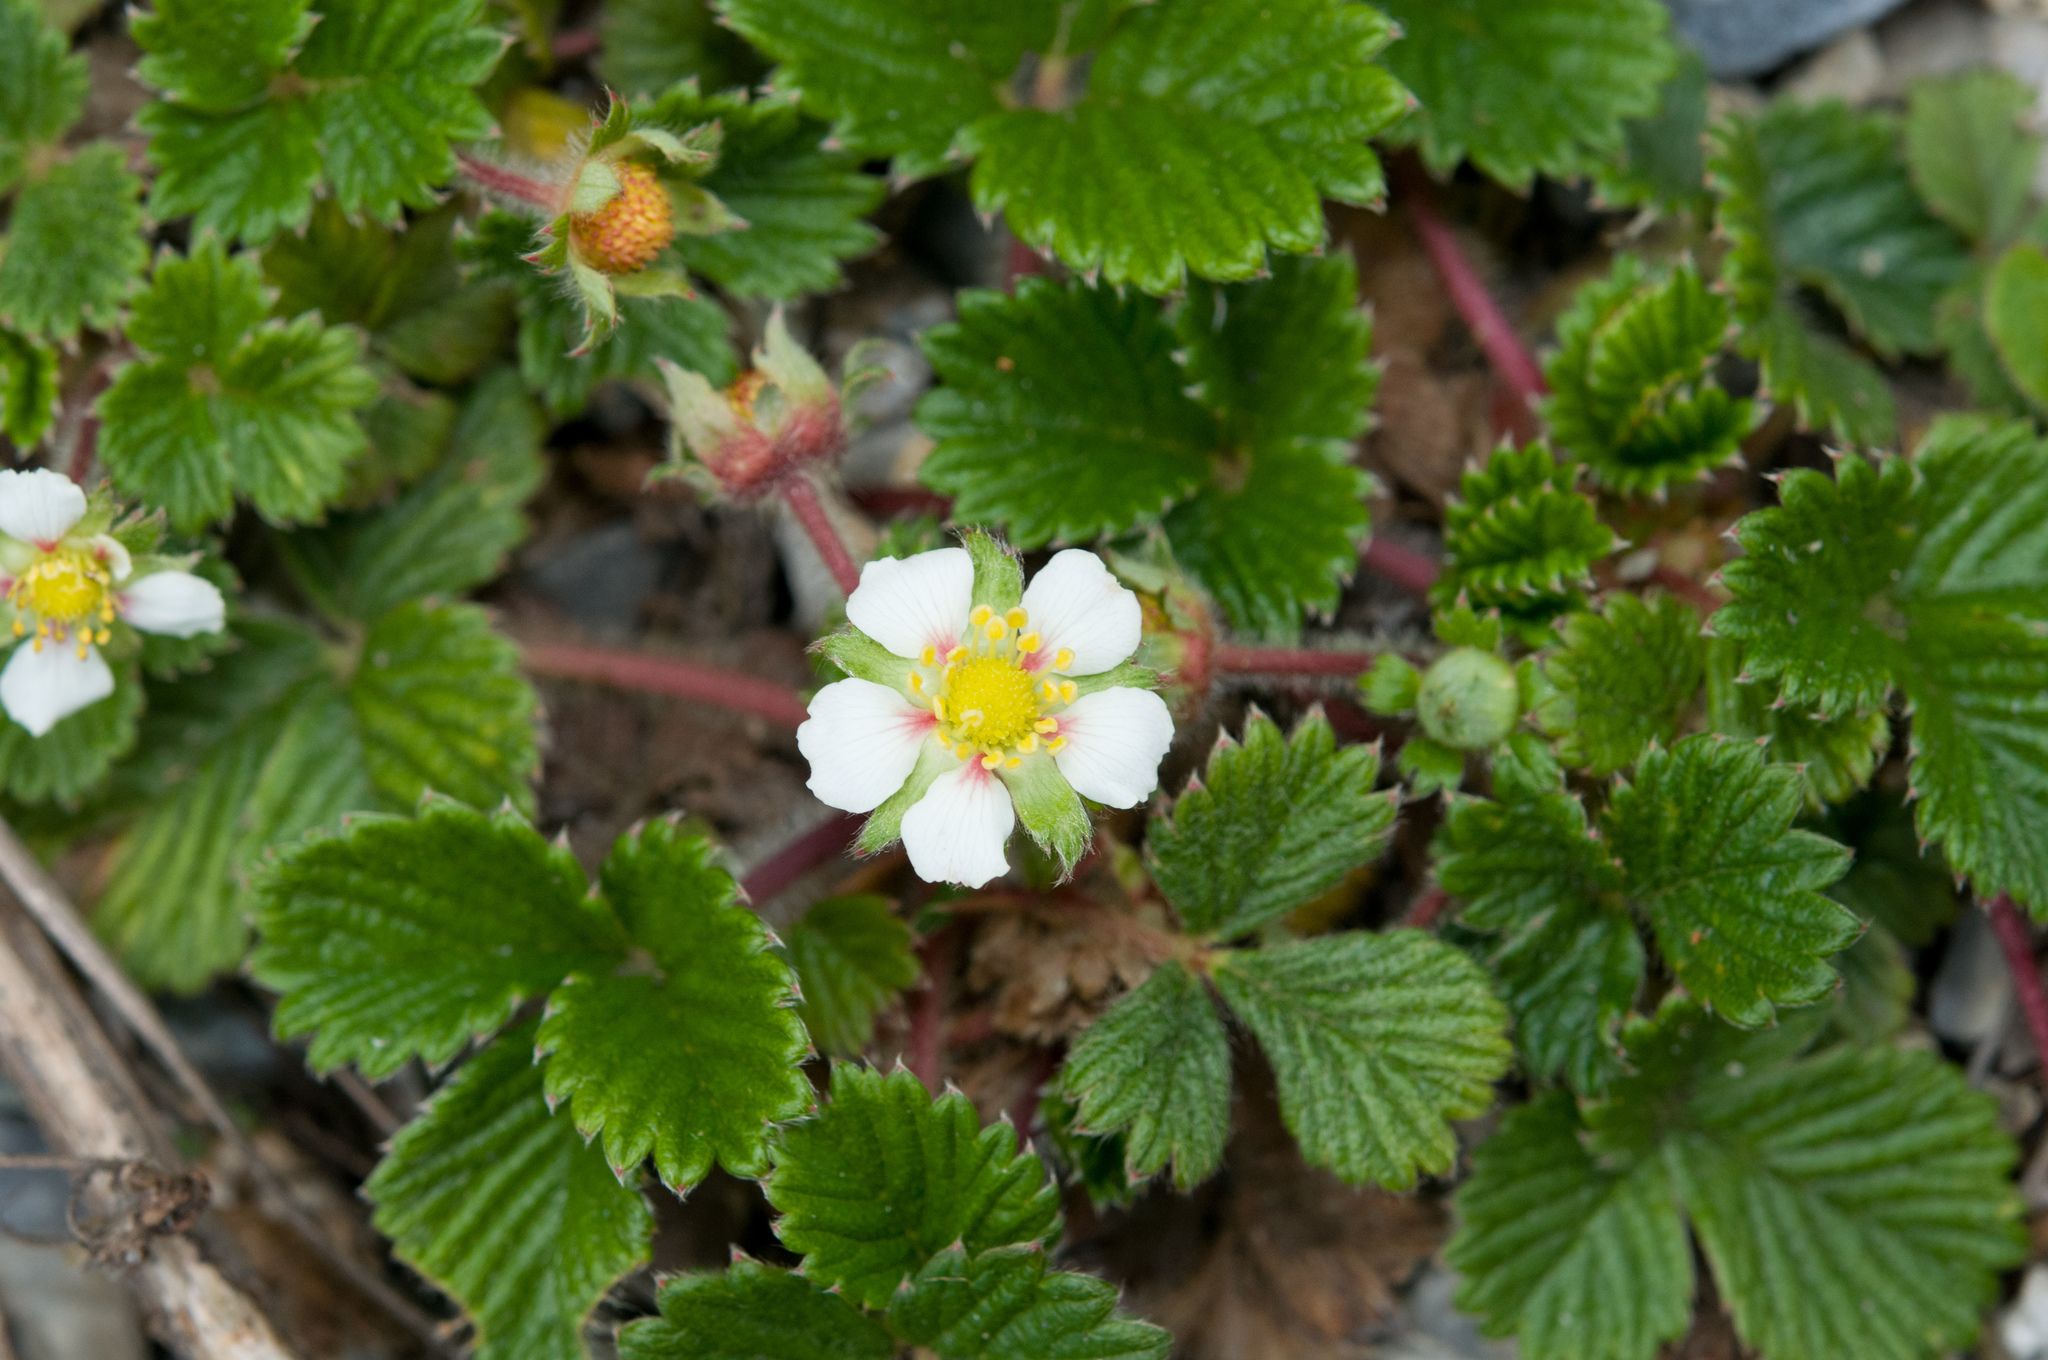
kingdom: Plantae
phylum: Tracheophyta
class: Magnoliopsida
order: Rosales
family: Rosaceae
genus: Fragaria
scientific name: Fragaria nilgerrensis
